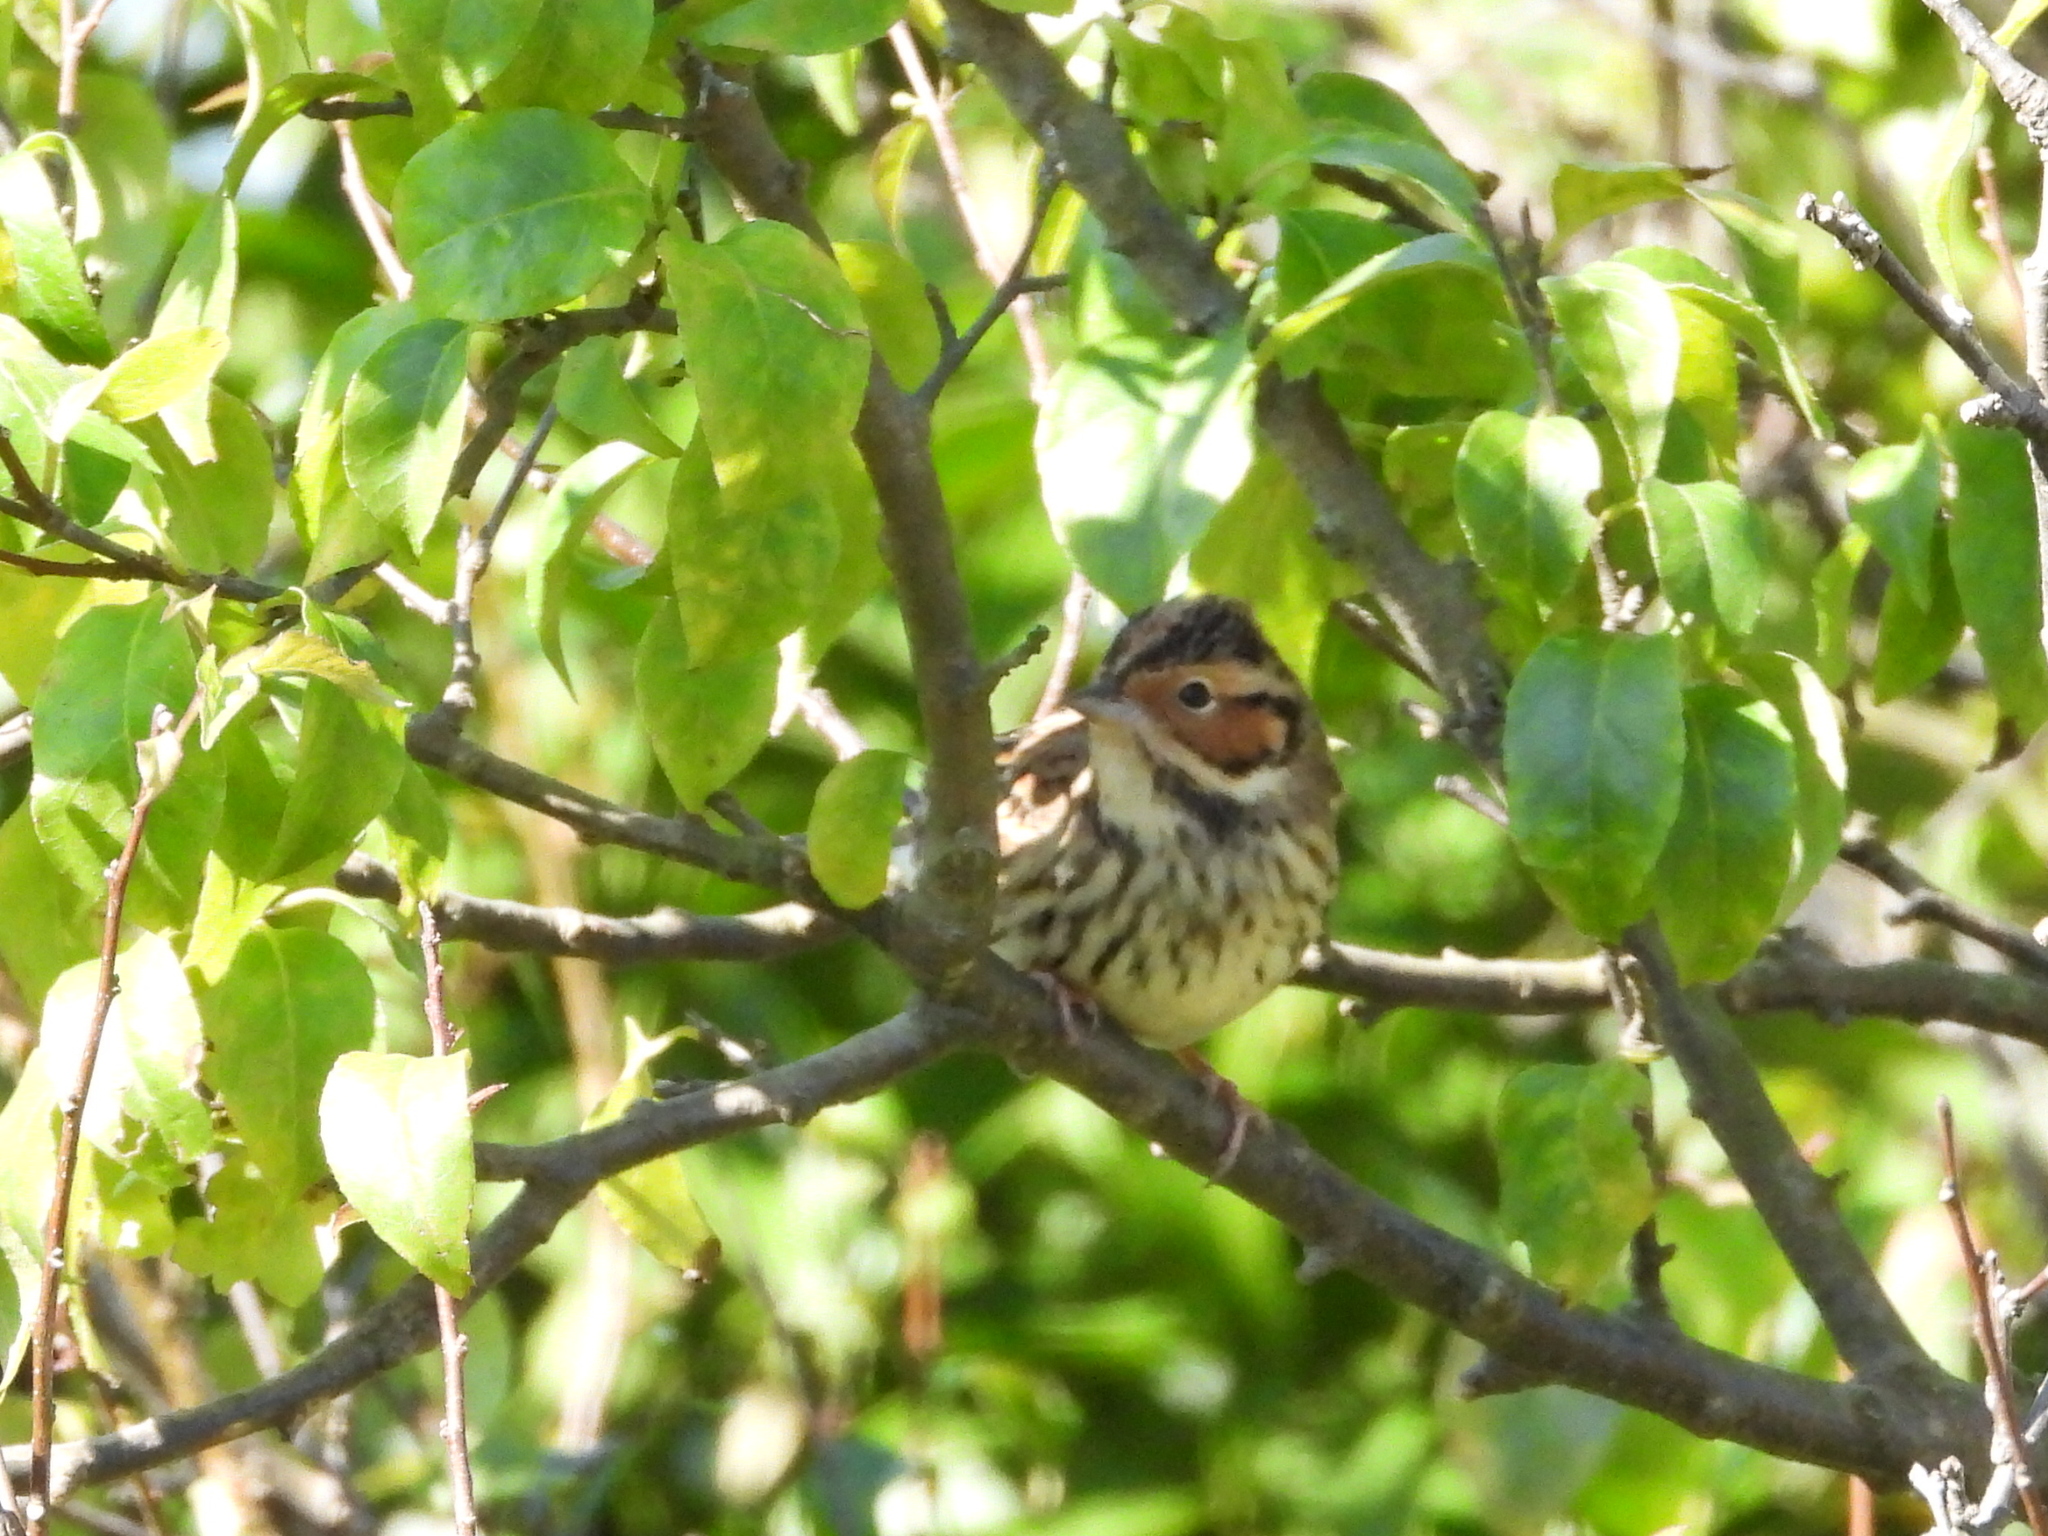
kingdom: Animalia
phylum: Chordata
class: Aves
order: Passeriformes
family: Emberizidae
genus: Emberiza
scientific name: Emberiza pusilla
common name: Little bunting
